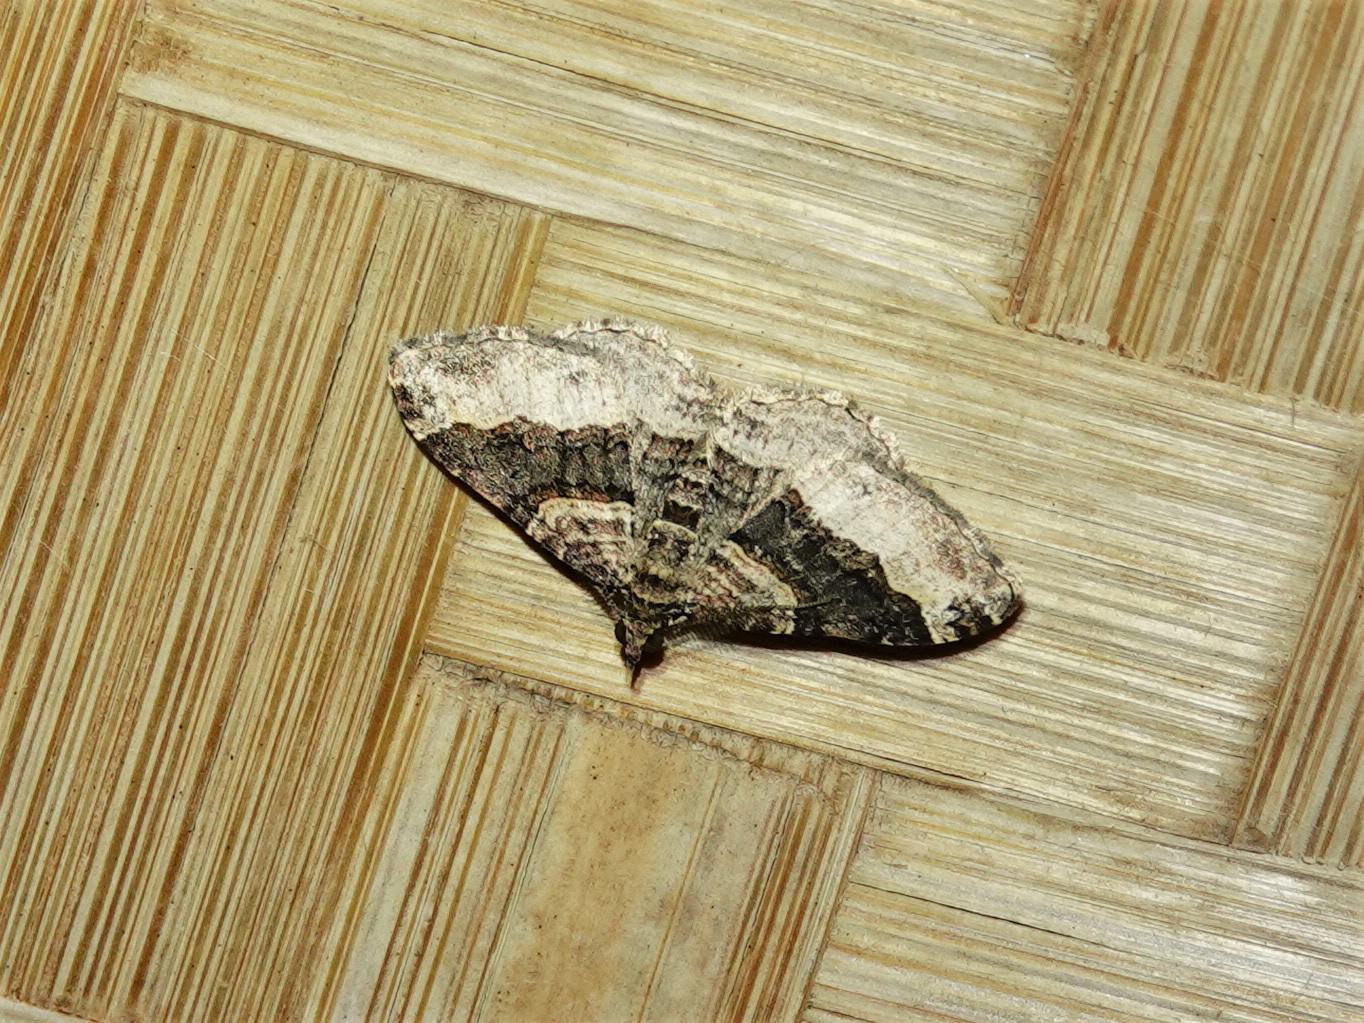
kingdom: Animalia
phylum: Arthropoda
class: Insecta
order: Lepidoptera
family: Geometridae
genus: Epyaxa
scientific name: Epyaxa lucidata
